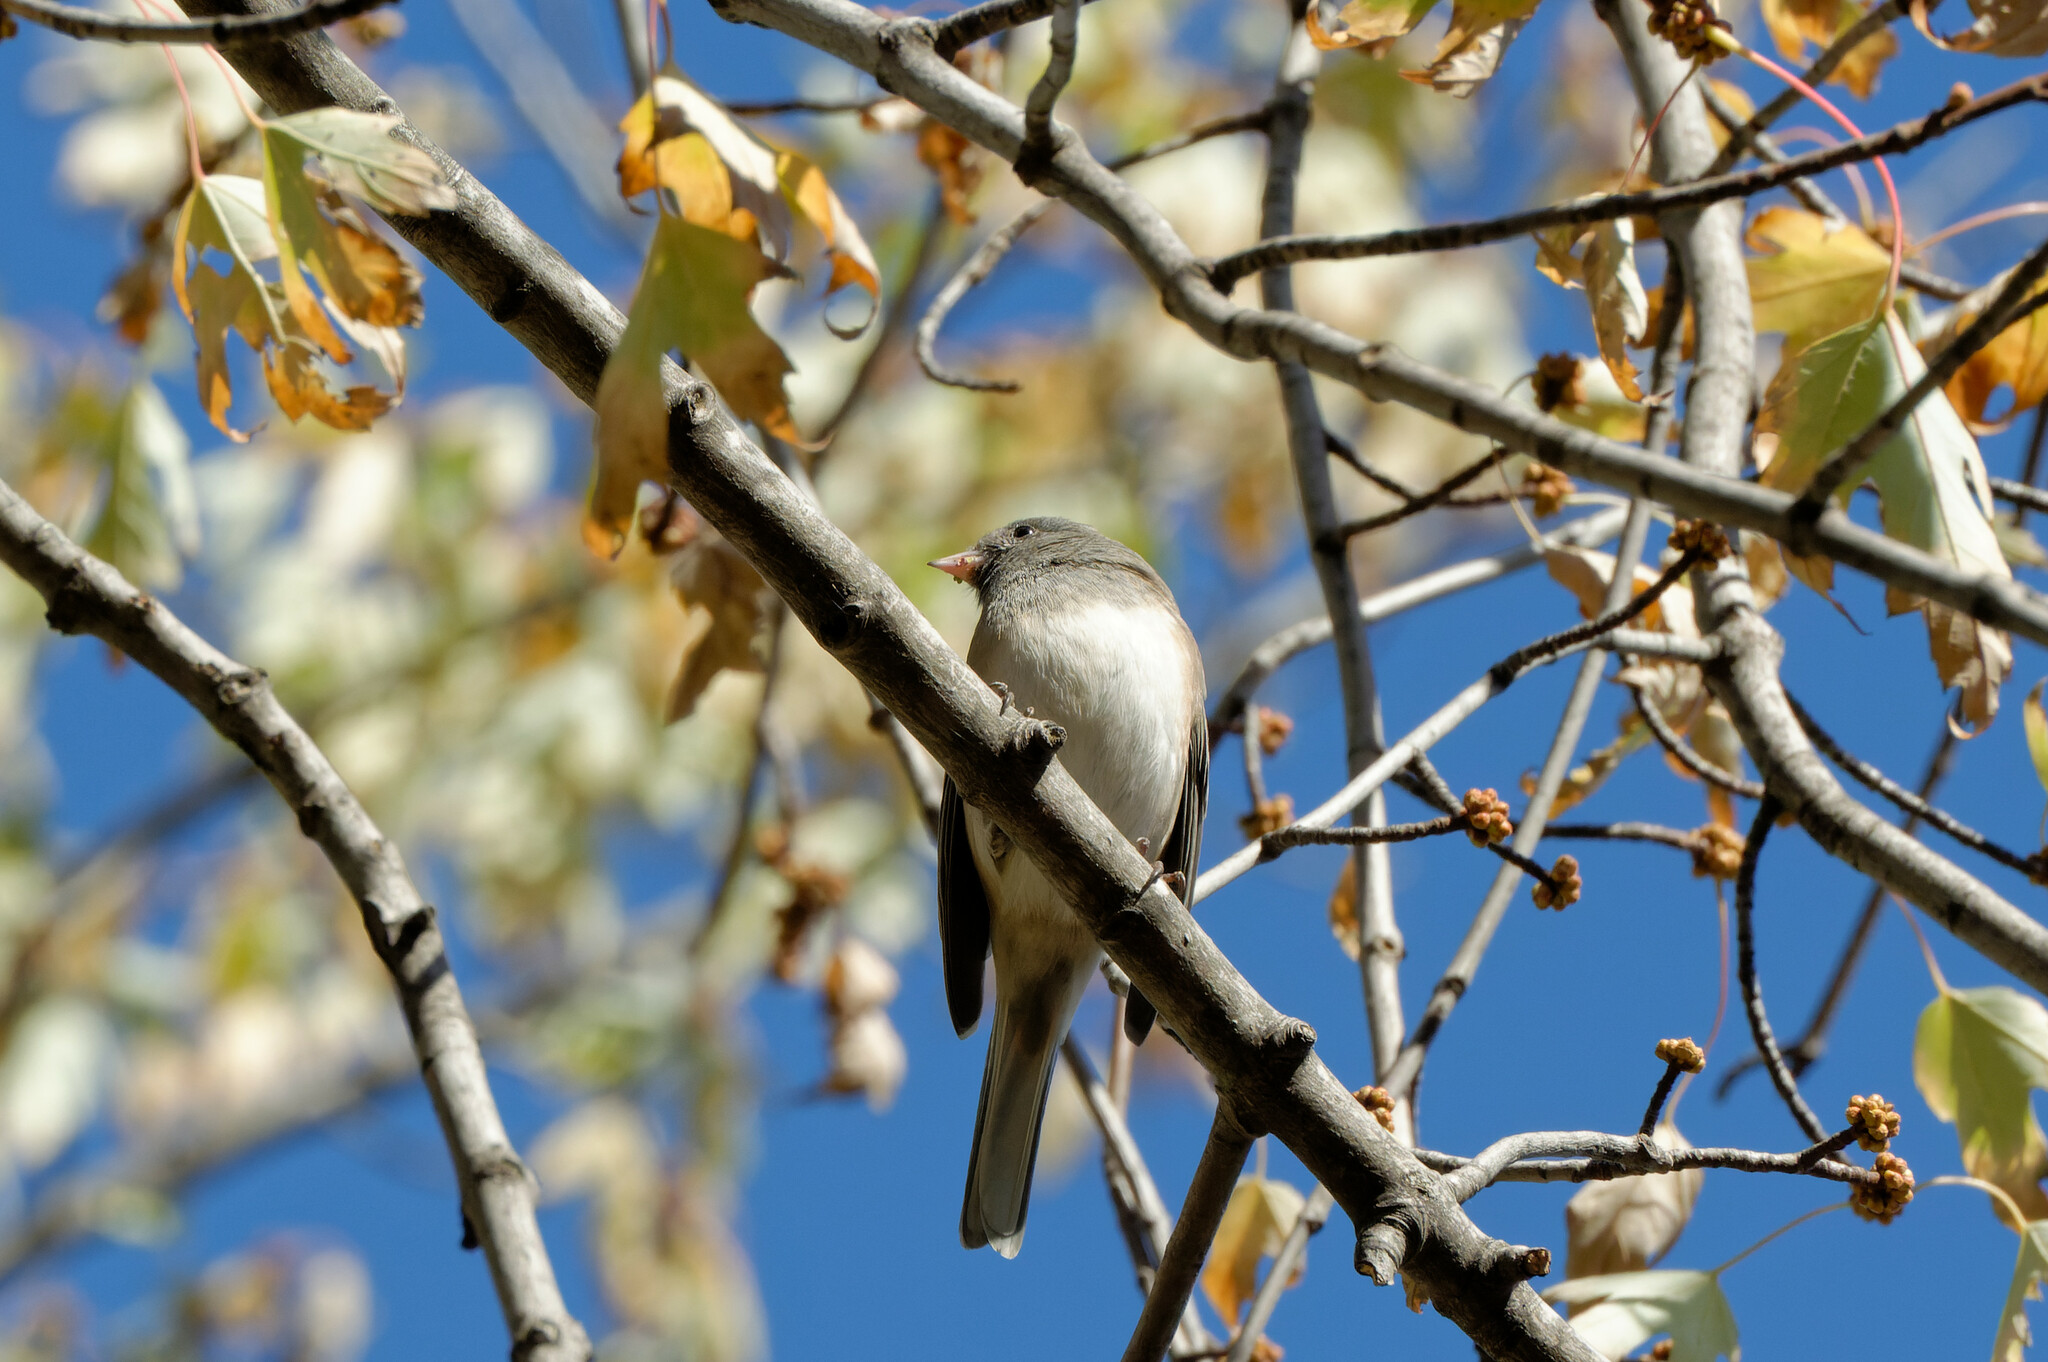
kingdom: Animalia
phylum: Chordata
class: Aves
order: Passeriformes
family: Passerellidae
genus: Junco
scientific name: Junco hyemalis
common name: Dark-eyed junco
